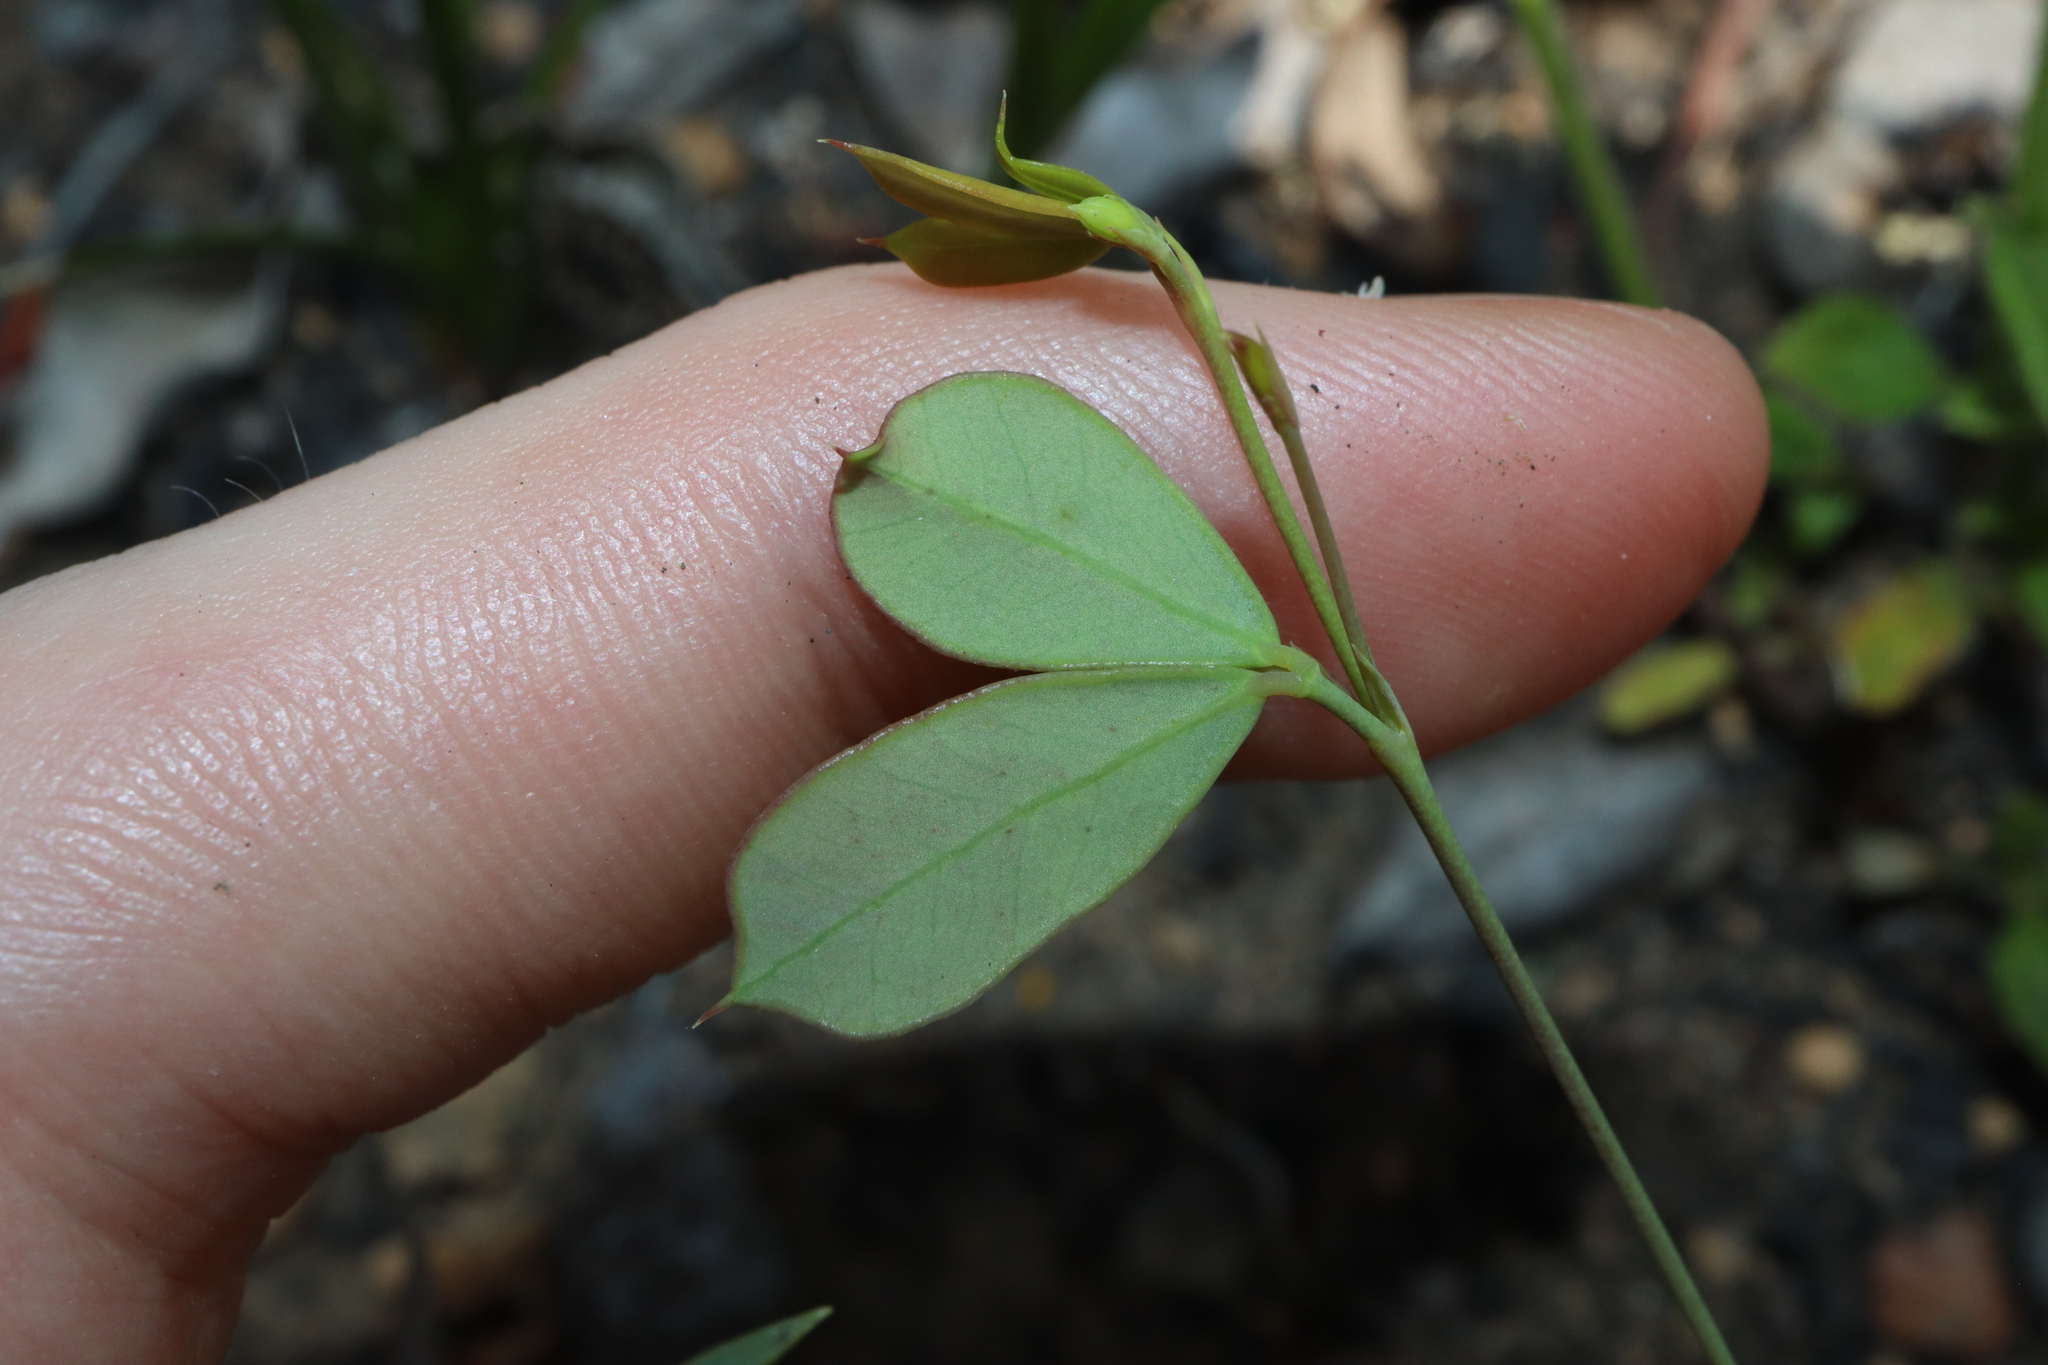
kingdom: Plantae
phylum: Tracheophyta
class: Magnoliopsida
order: Fabales
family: Fabaceae
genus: Gompholobium
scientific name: Gompholobium marginatum
